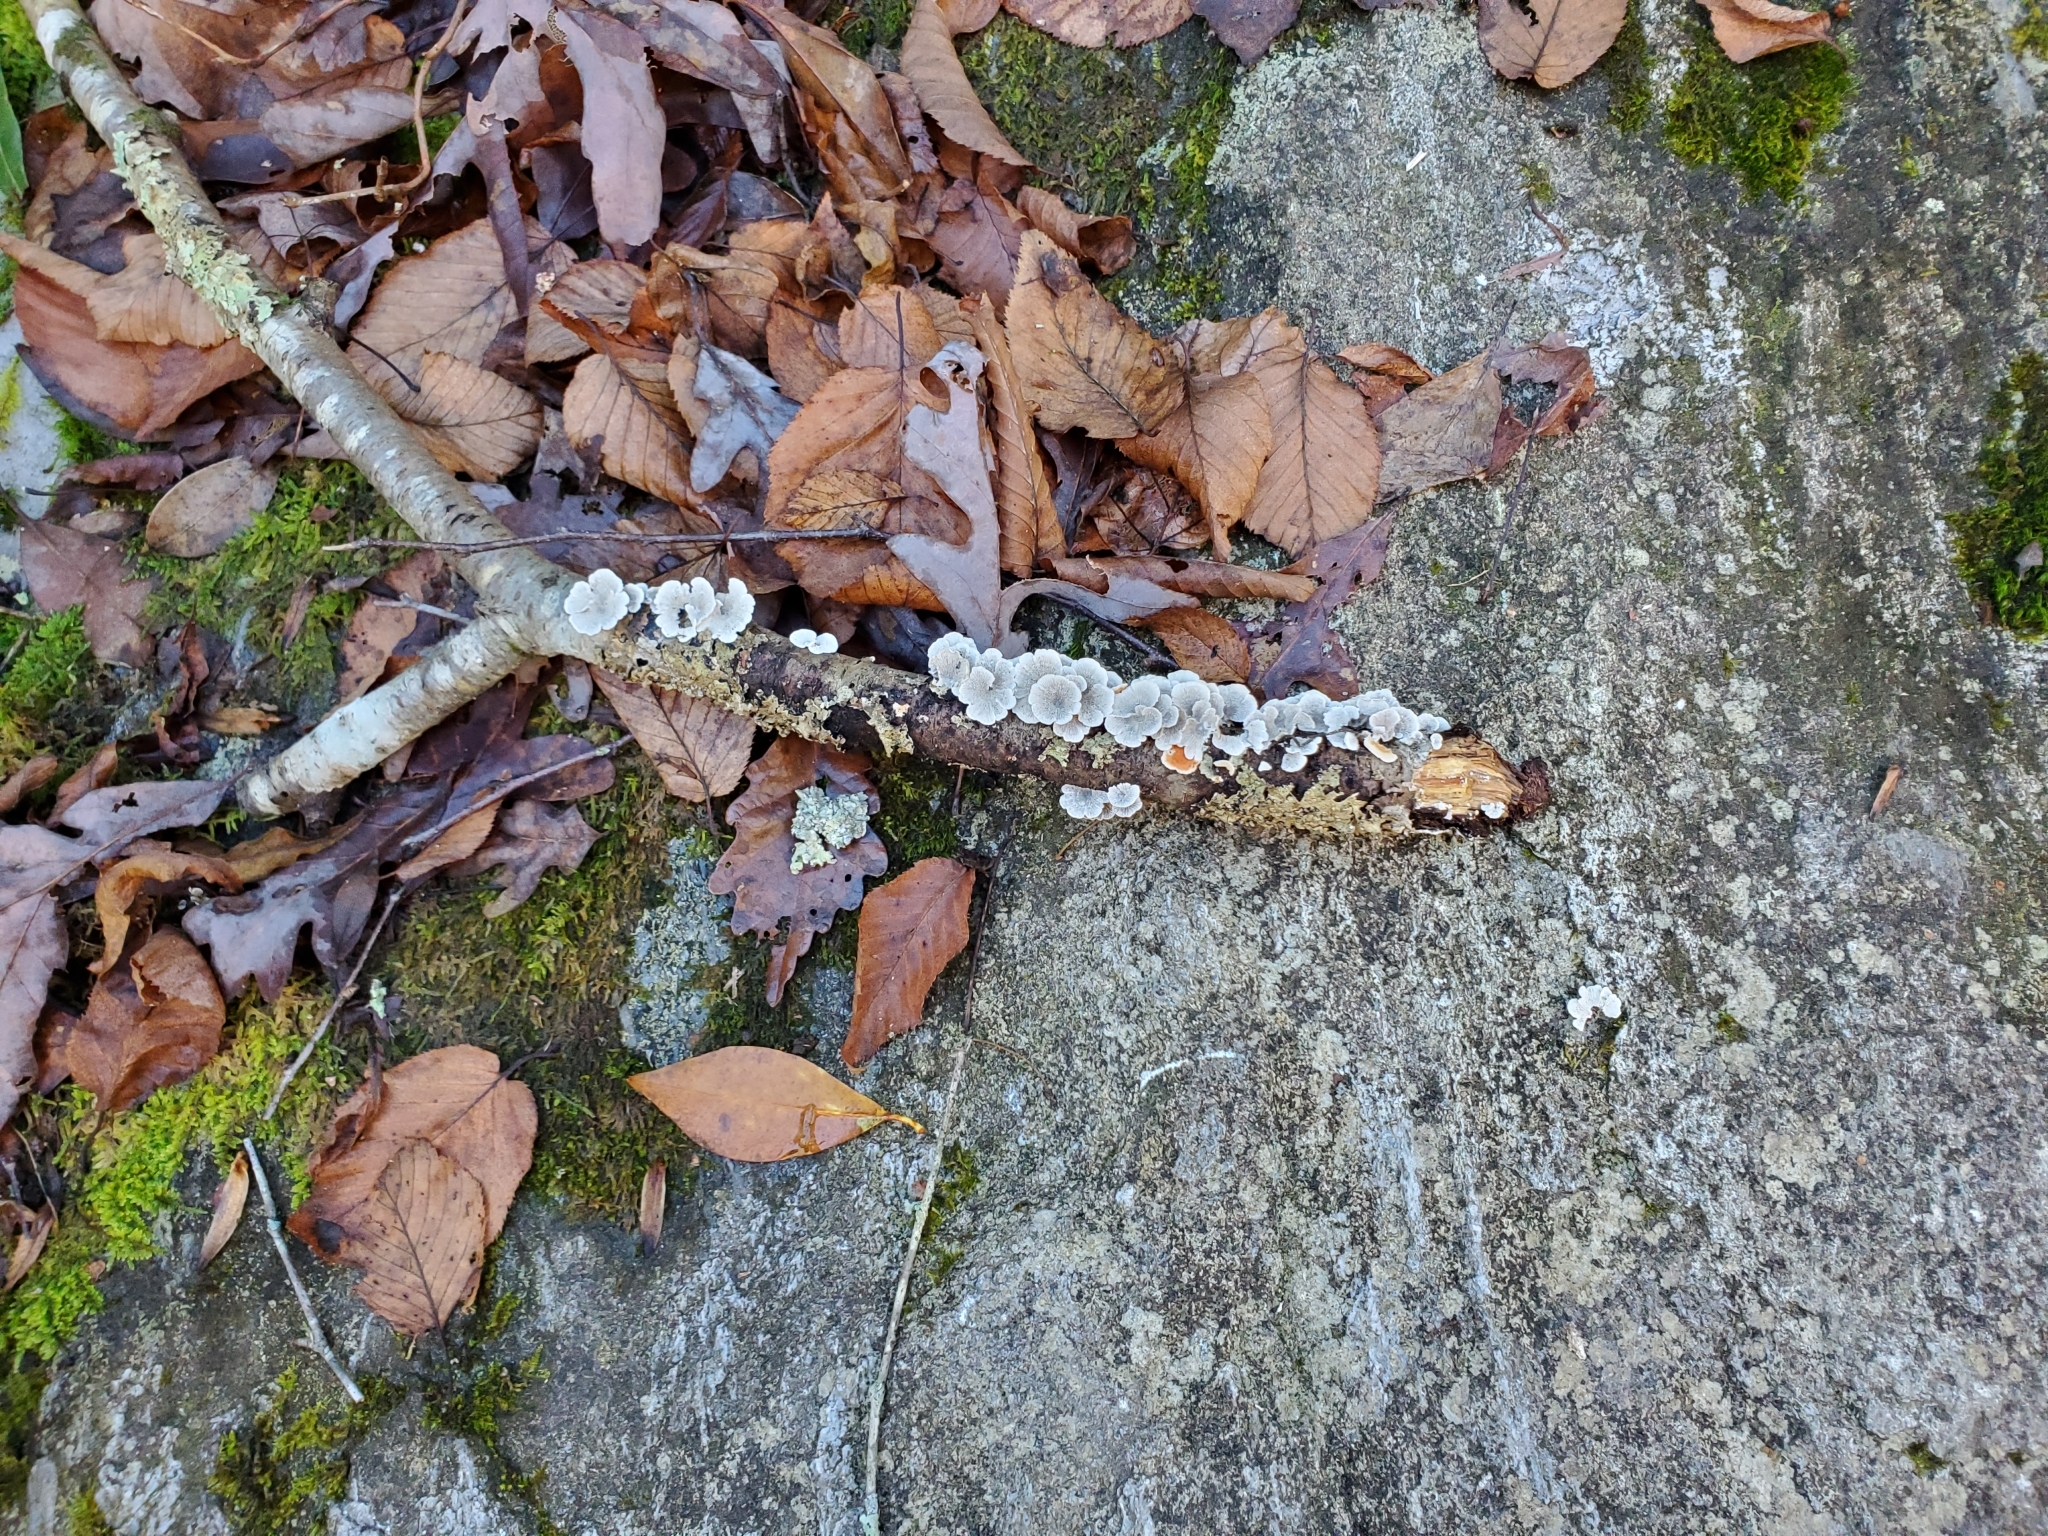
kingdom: Fungi
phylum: Basidiomycota
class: Agaricomycetes
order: Amylocorticiales
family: Amylocorticiaceae
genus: Plicaturopsis
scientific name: Plicaturopsis crispa
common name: Crimped gill
